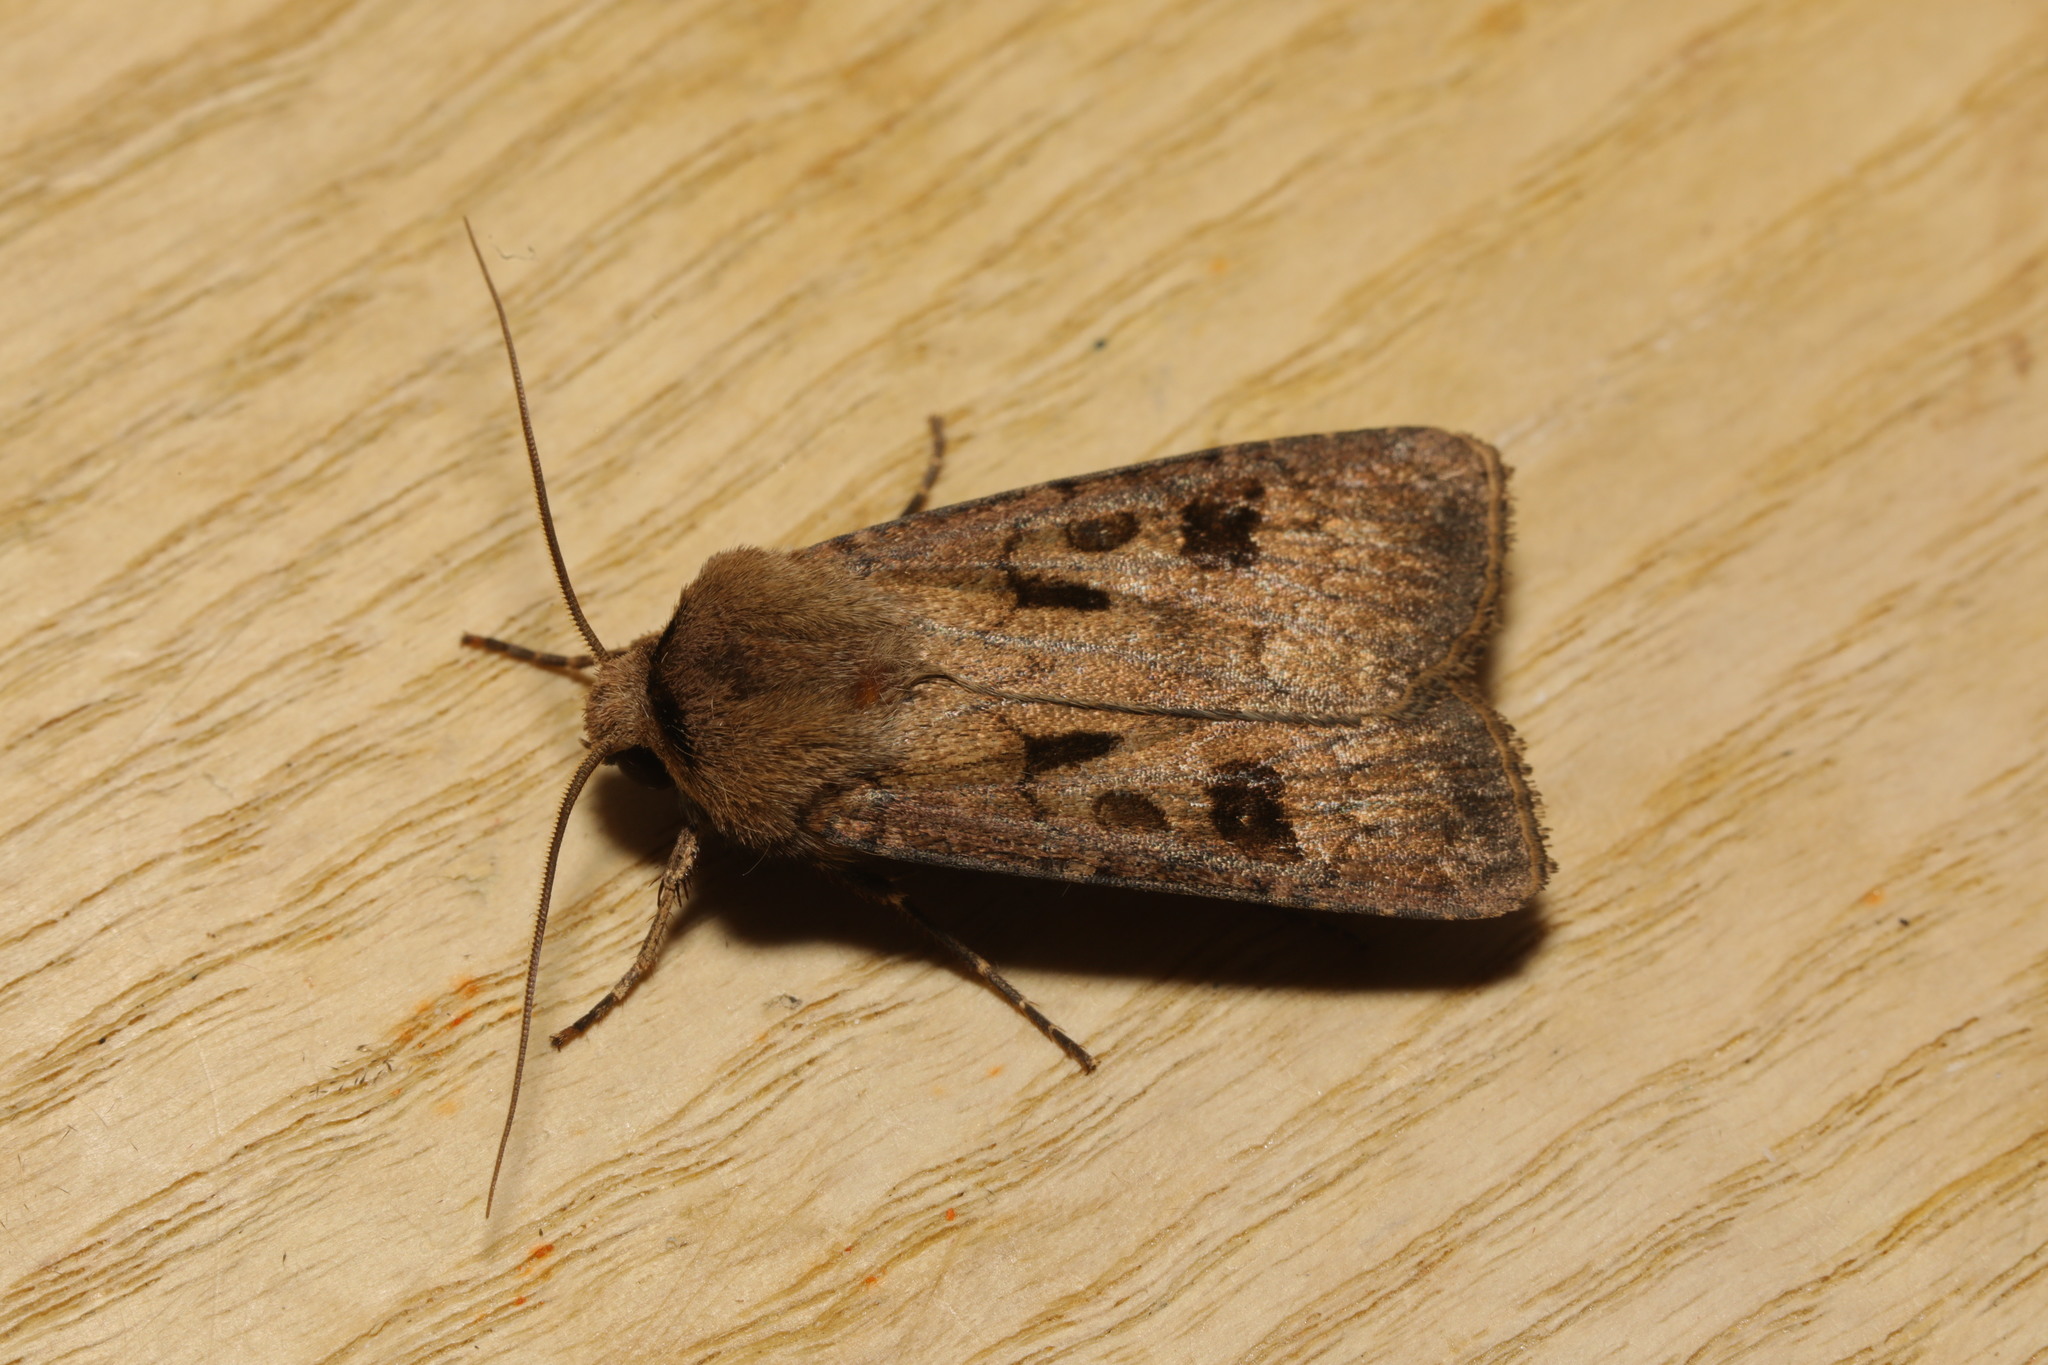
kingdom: Animalia
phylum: Arthropoda
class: Insecta
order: Lepidoptera
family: Noctuidae
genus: Agrotis
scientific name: Agrotis exclamationis
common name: Heart and dart
